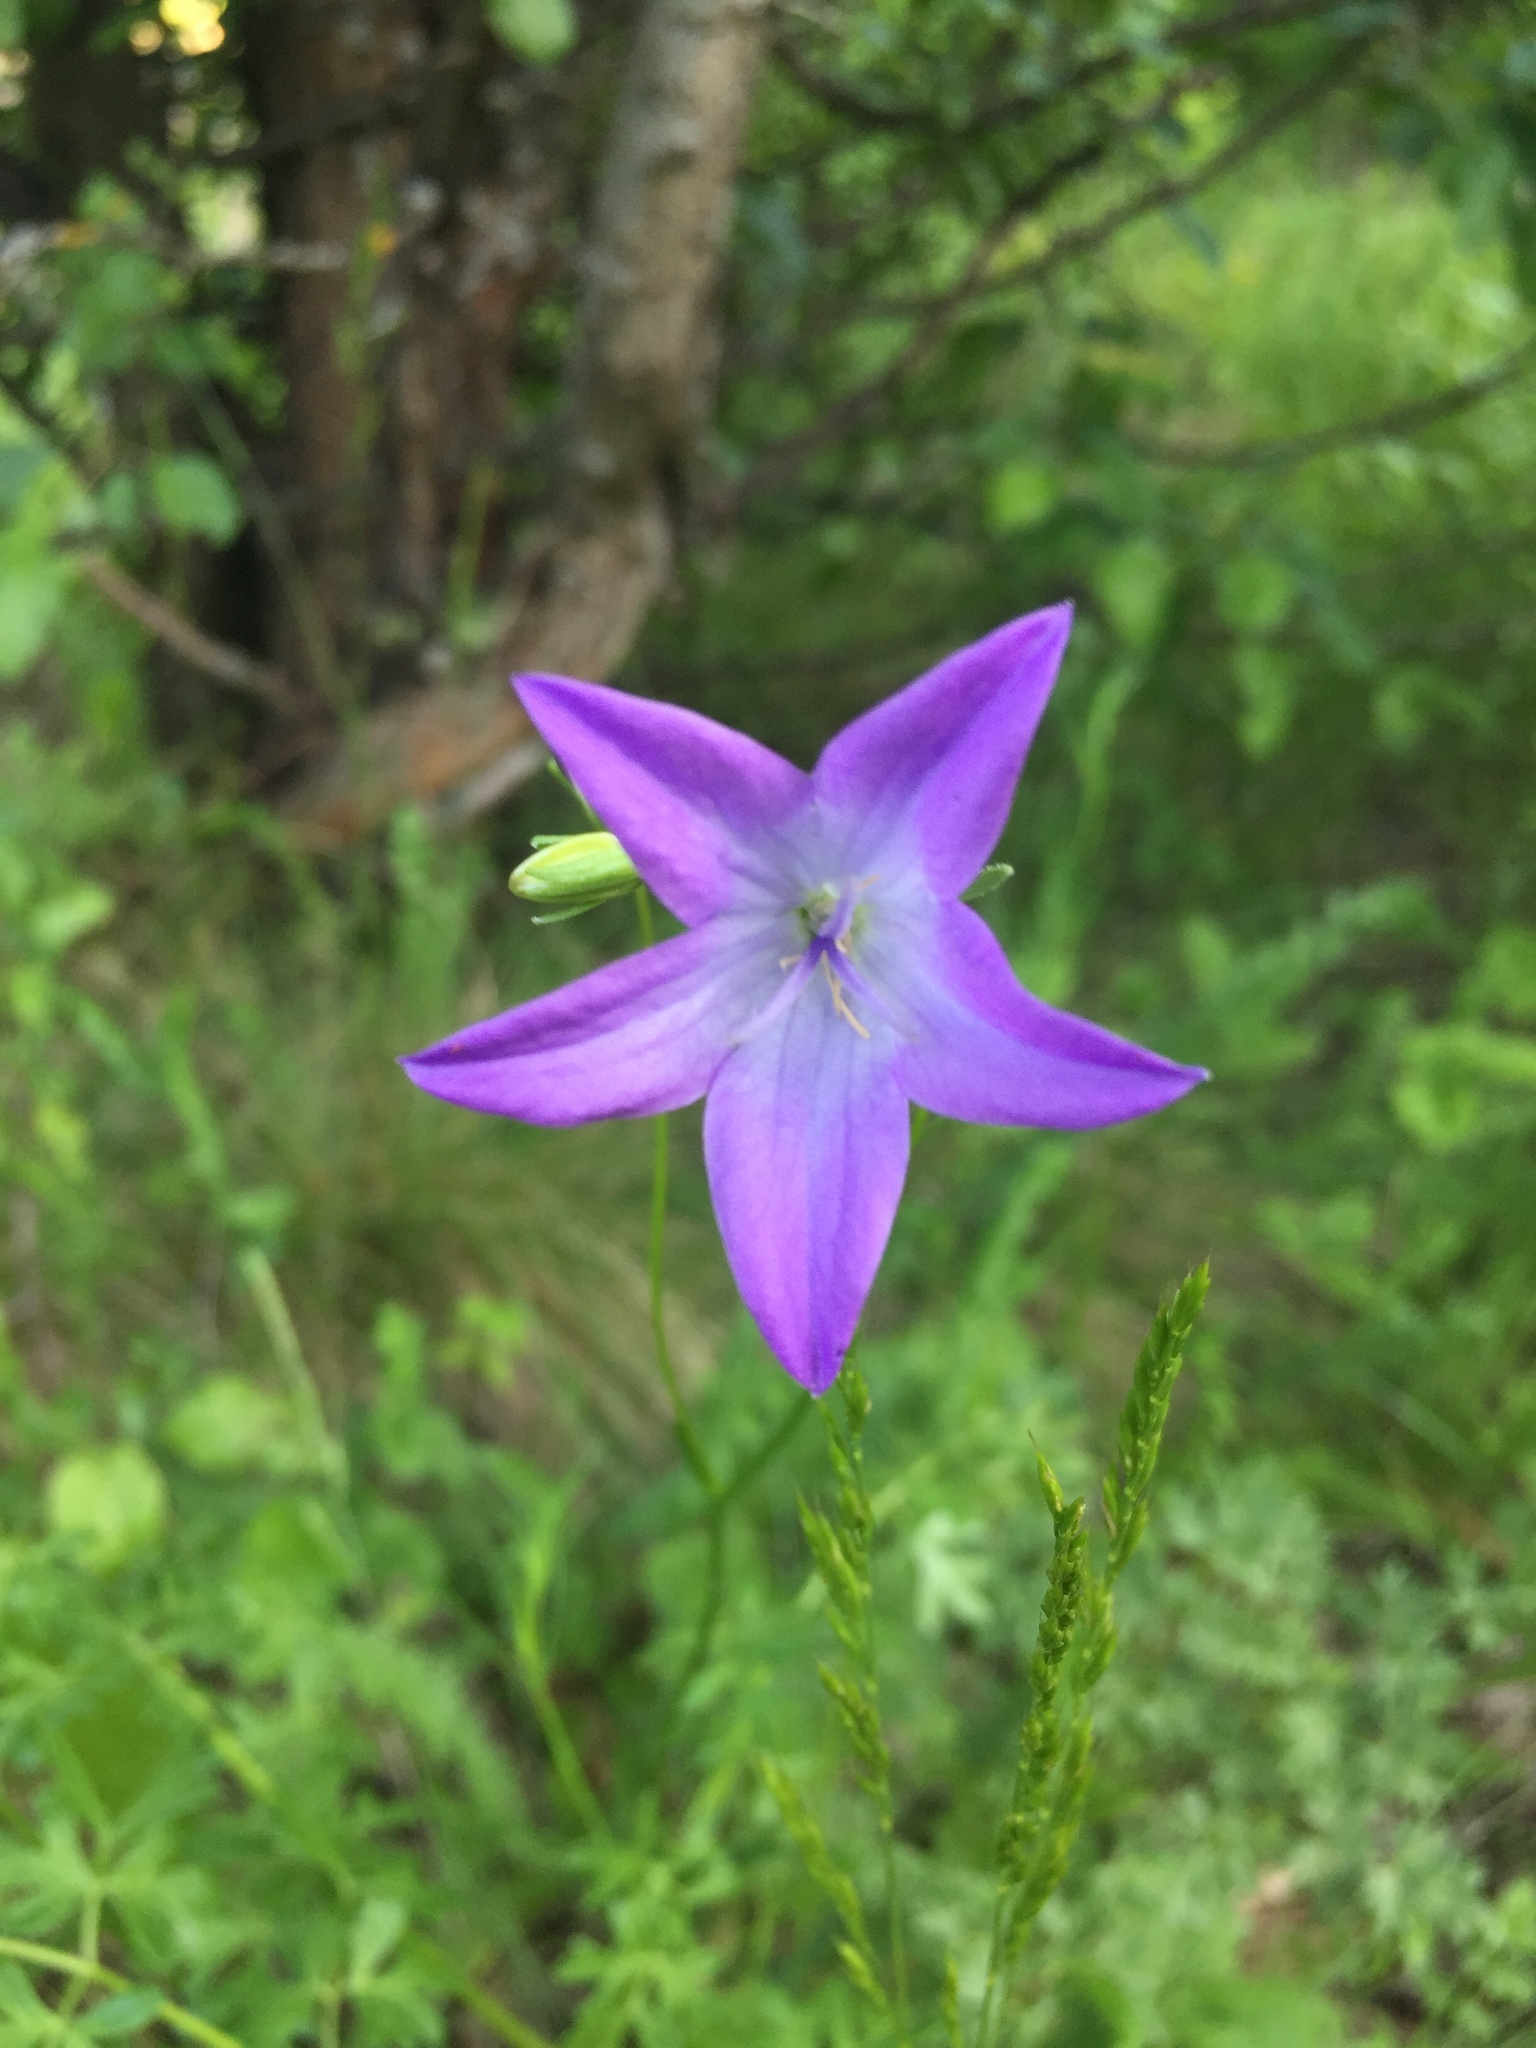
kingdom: Plantae
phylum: Tracheophyta
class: Magnoliopsida
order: Asterales
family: Campanulaceae
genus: Campanula
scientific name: Campanula stevenii
